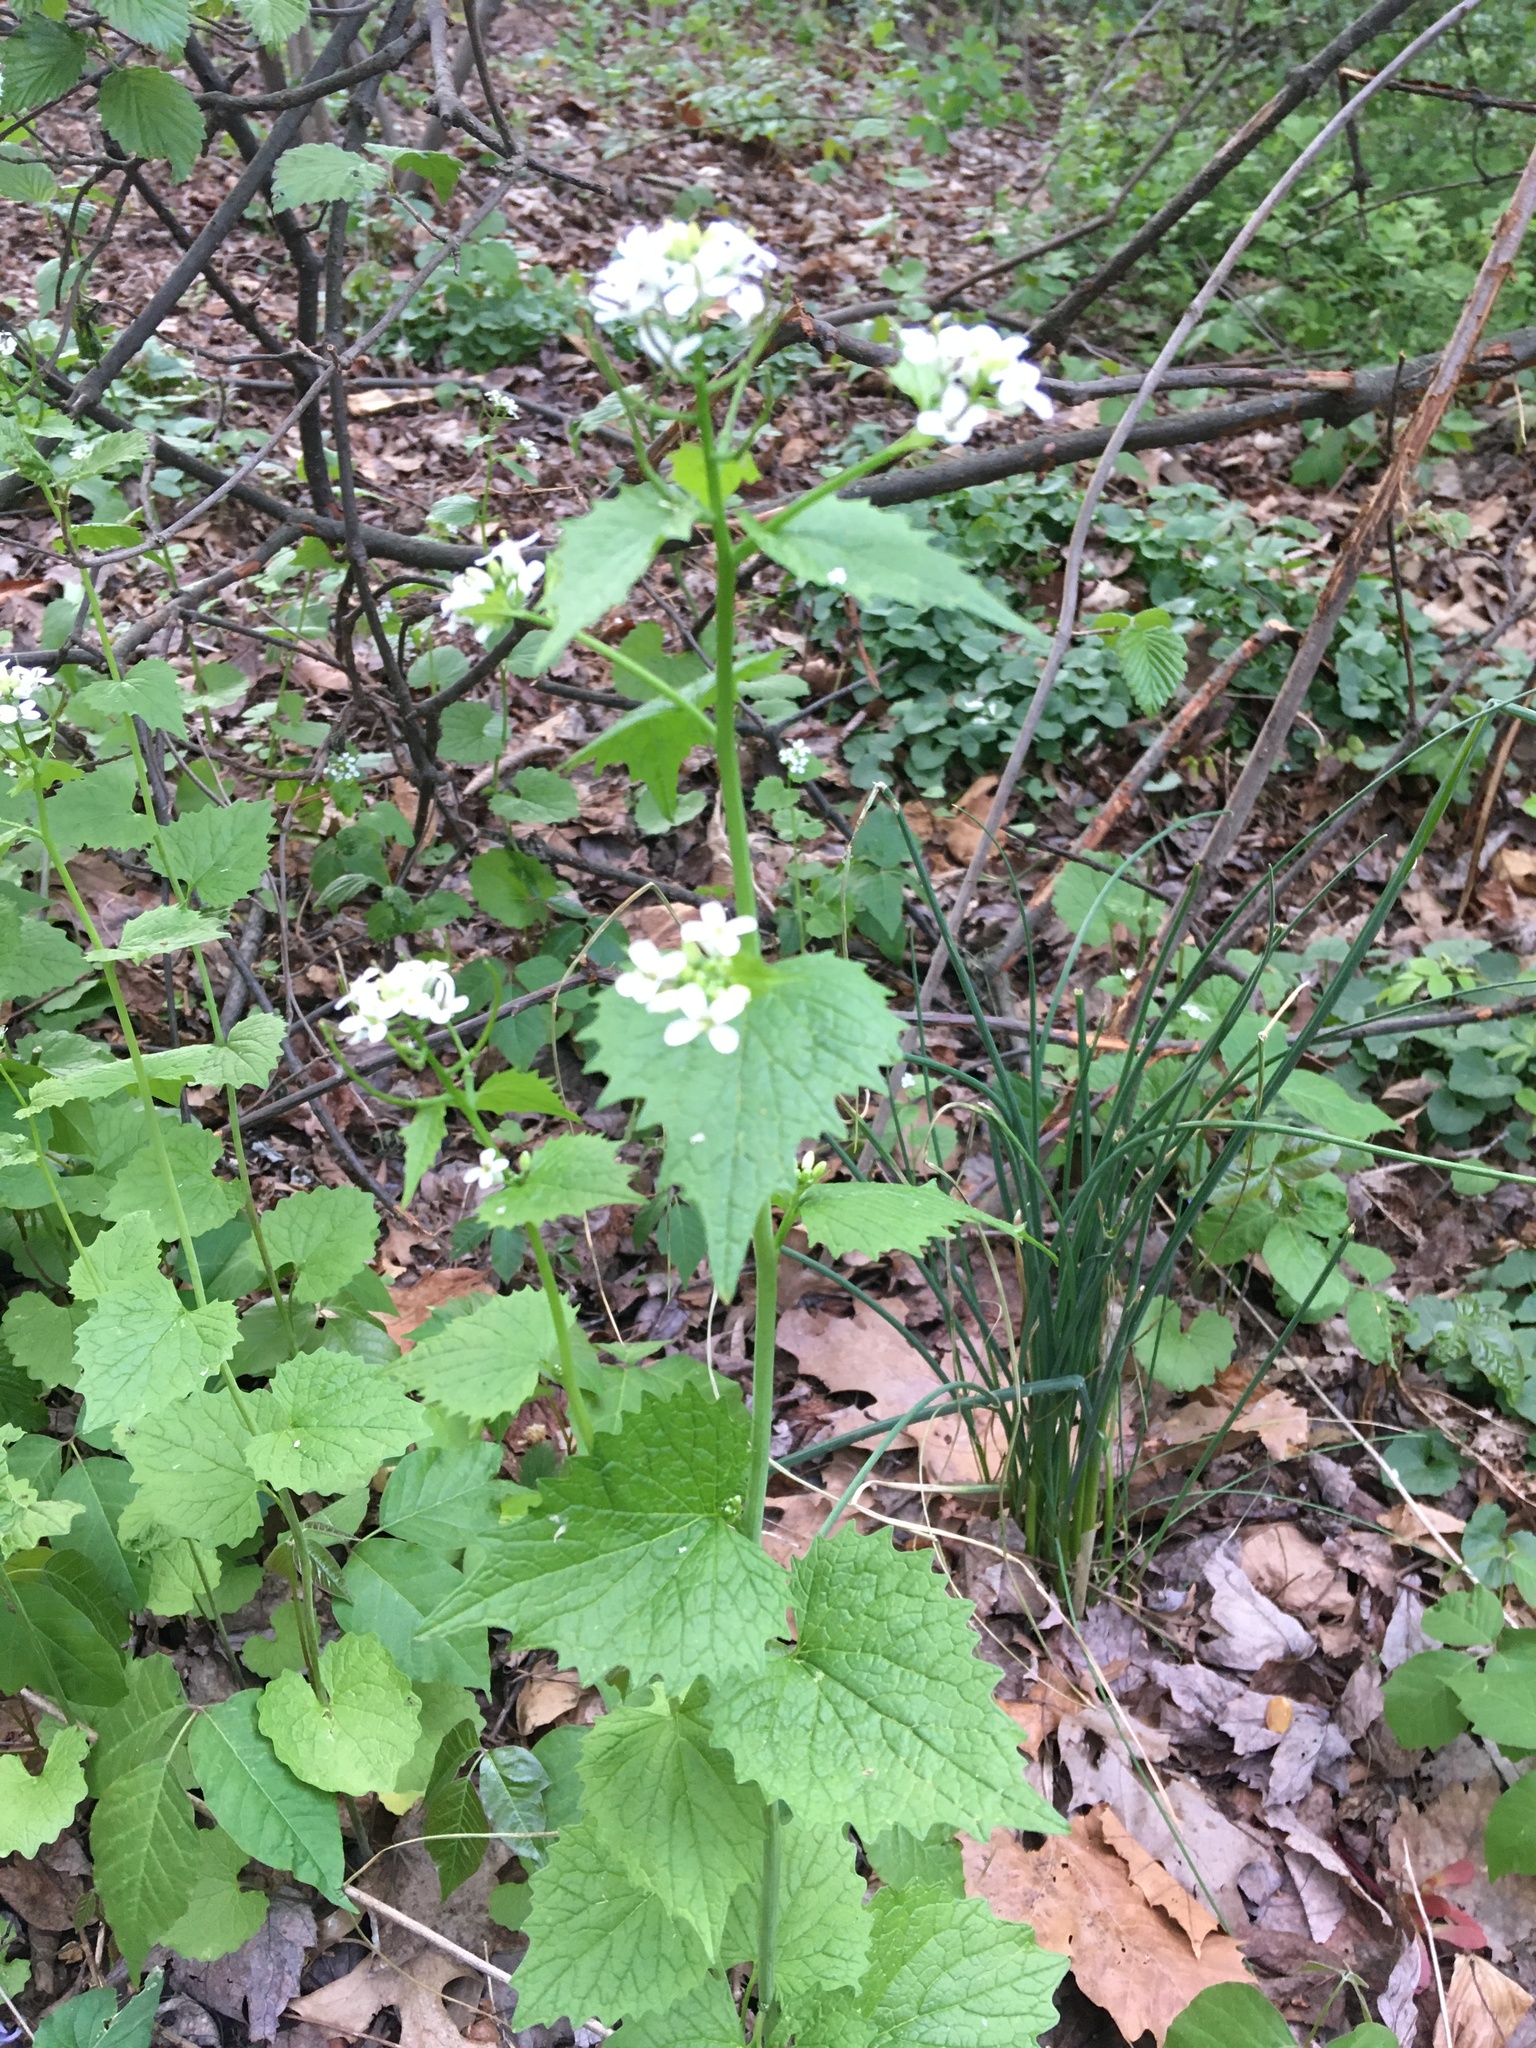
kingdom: Plantae
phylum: Tracheophyta
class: Magnoliopsida
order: Brassicales
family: Brassicaceae
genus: Alliaria
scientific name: Alliaria petiolata
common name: Garlic mustard
